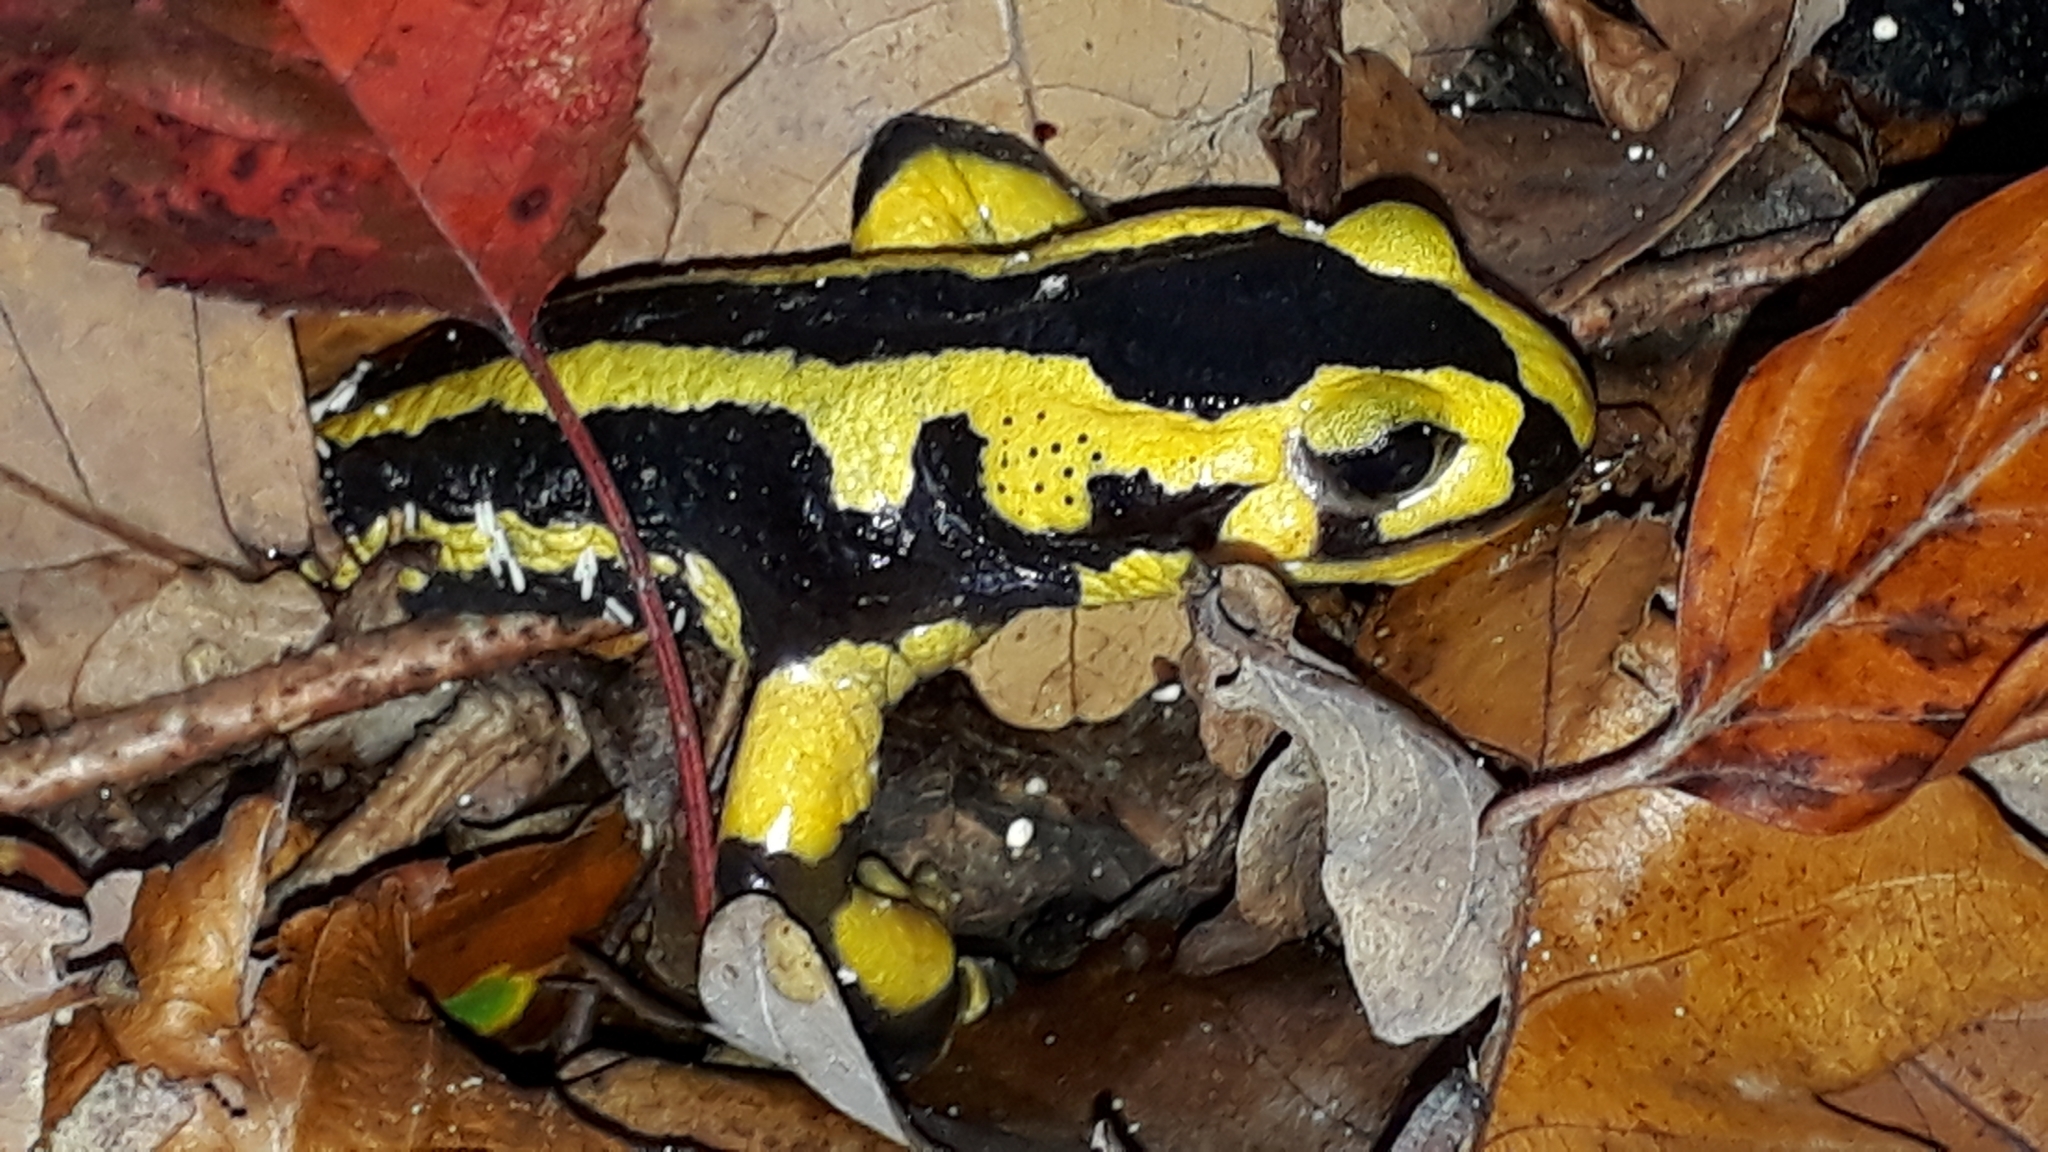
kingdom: Animalia
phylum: Chordata
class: Amphibia
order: Caudata
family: Salamandridae
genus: Salamandra
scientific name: Salamandra salamandra
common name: Fire salamander
